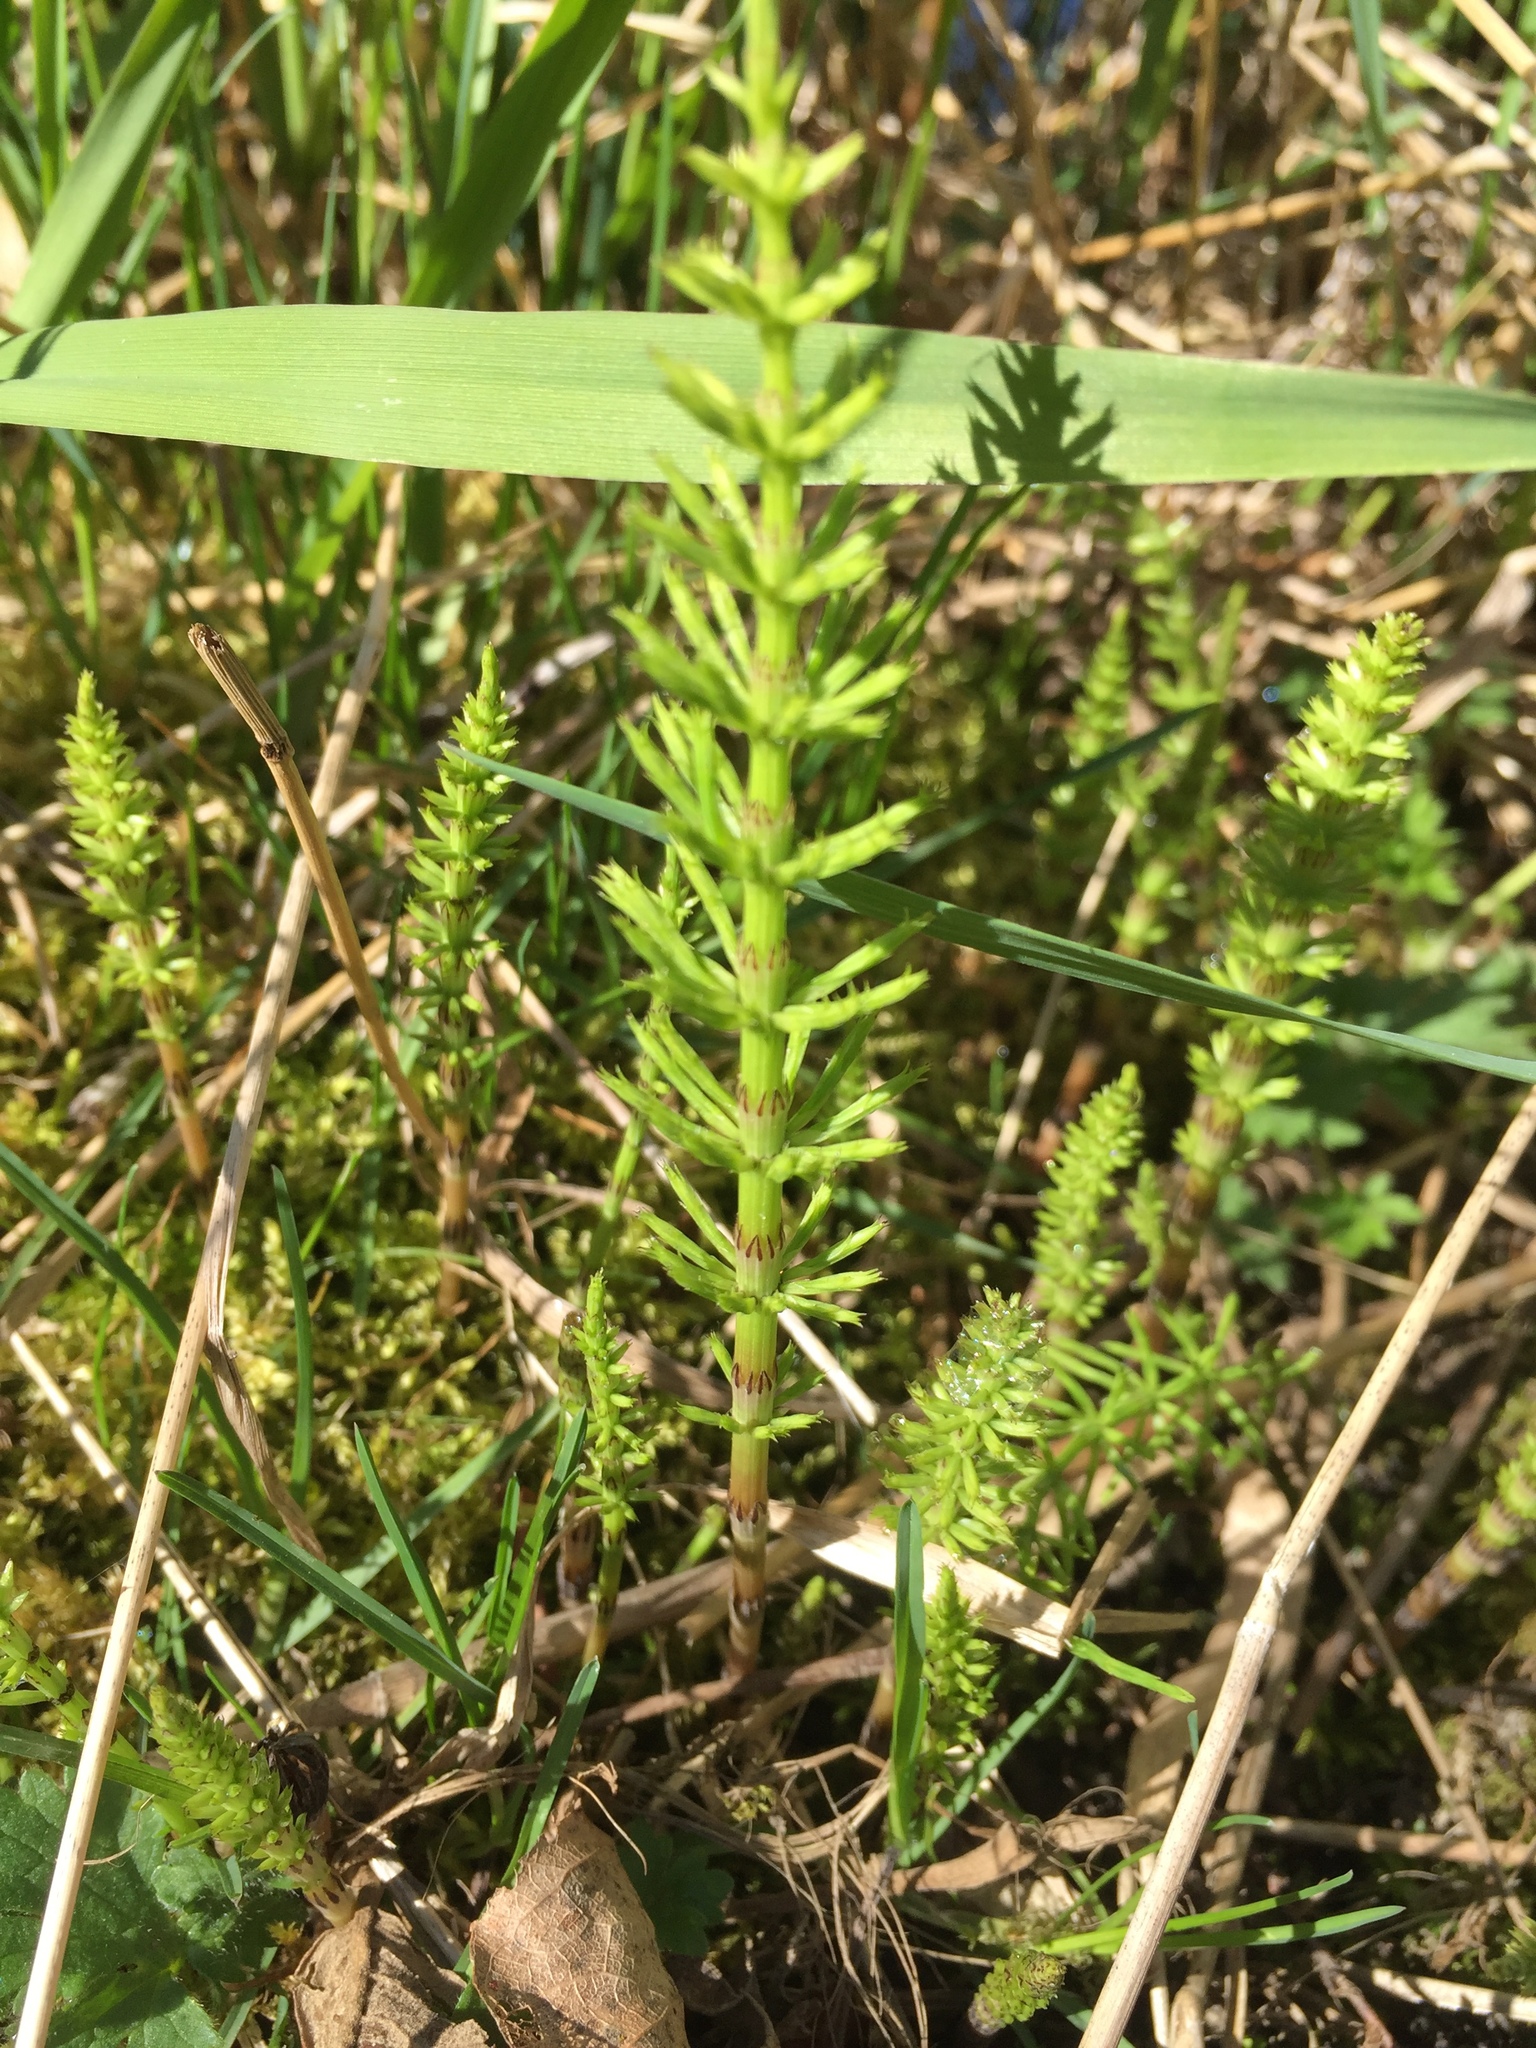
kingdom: Plantae
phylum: Tracheophyta
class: Polypodiopsida
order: Equisetales
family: Equisetaceae
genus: Equisetum
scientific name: Equisetum arvense
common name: Field horsetail
